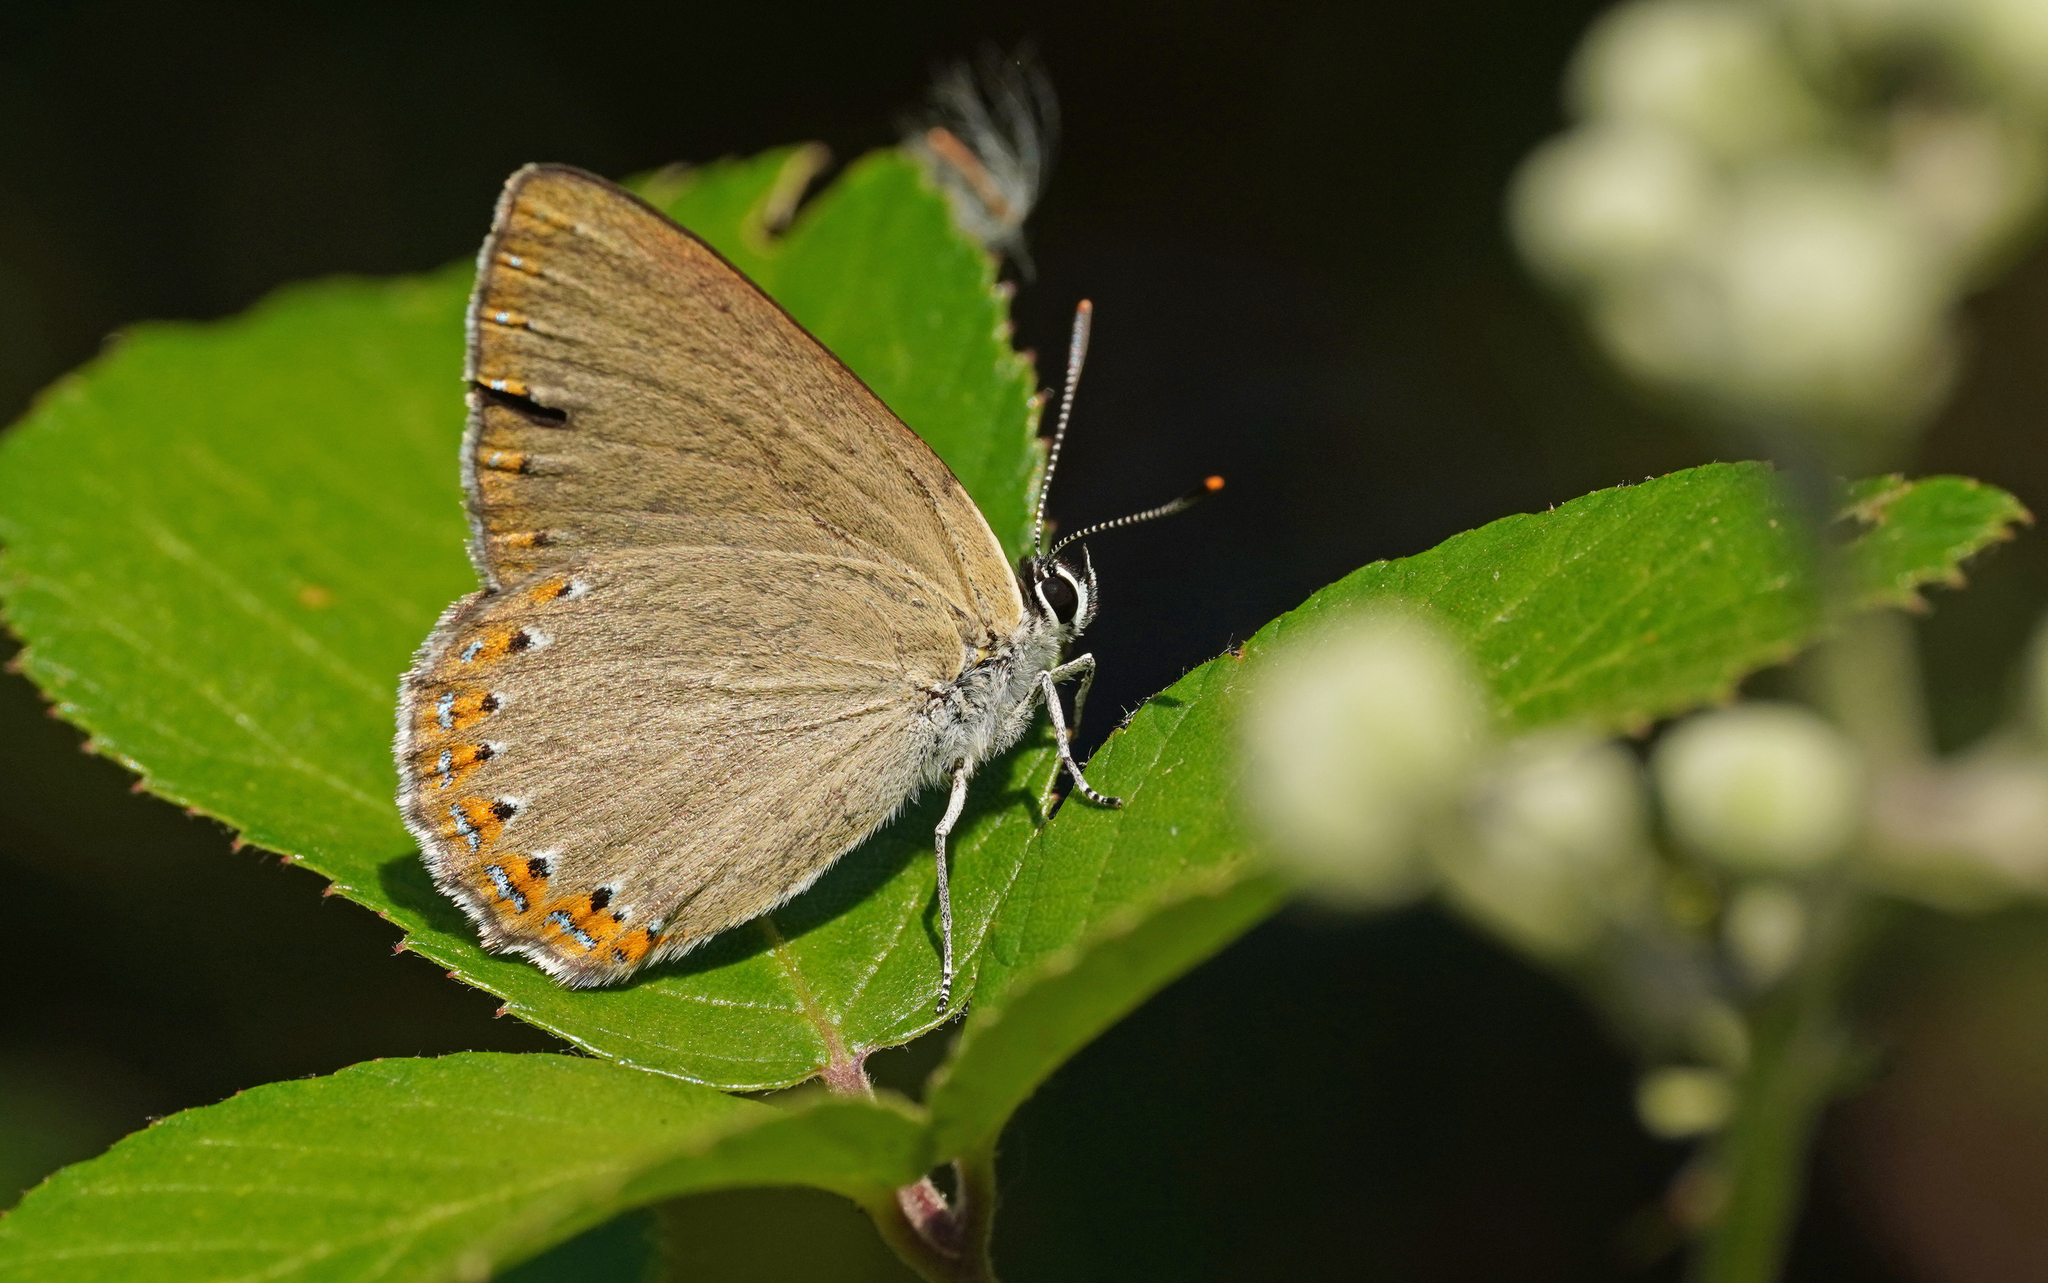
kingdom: Animalia
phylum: Arthropoda
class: Insecta
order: Lepidoptera
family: Lycaenidae
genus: Laeosopis
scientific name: Laeosopis roboris
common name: Spanish purple hairstreak
